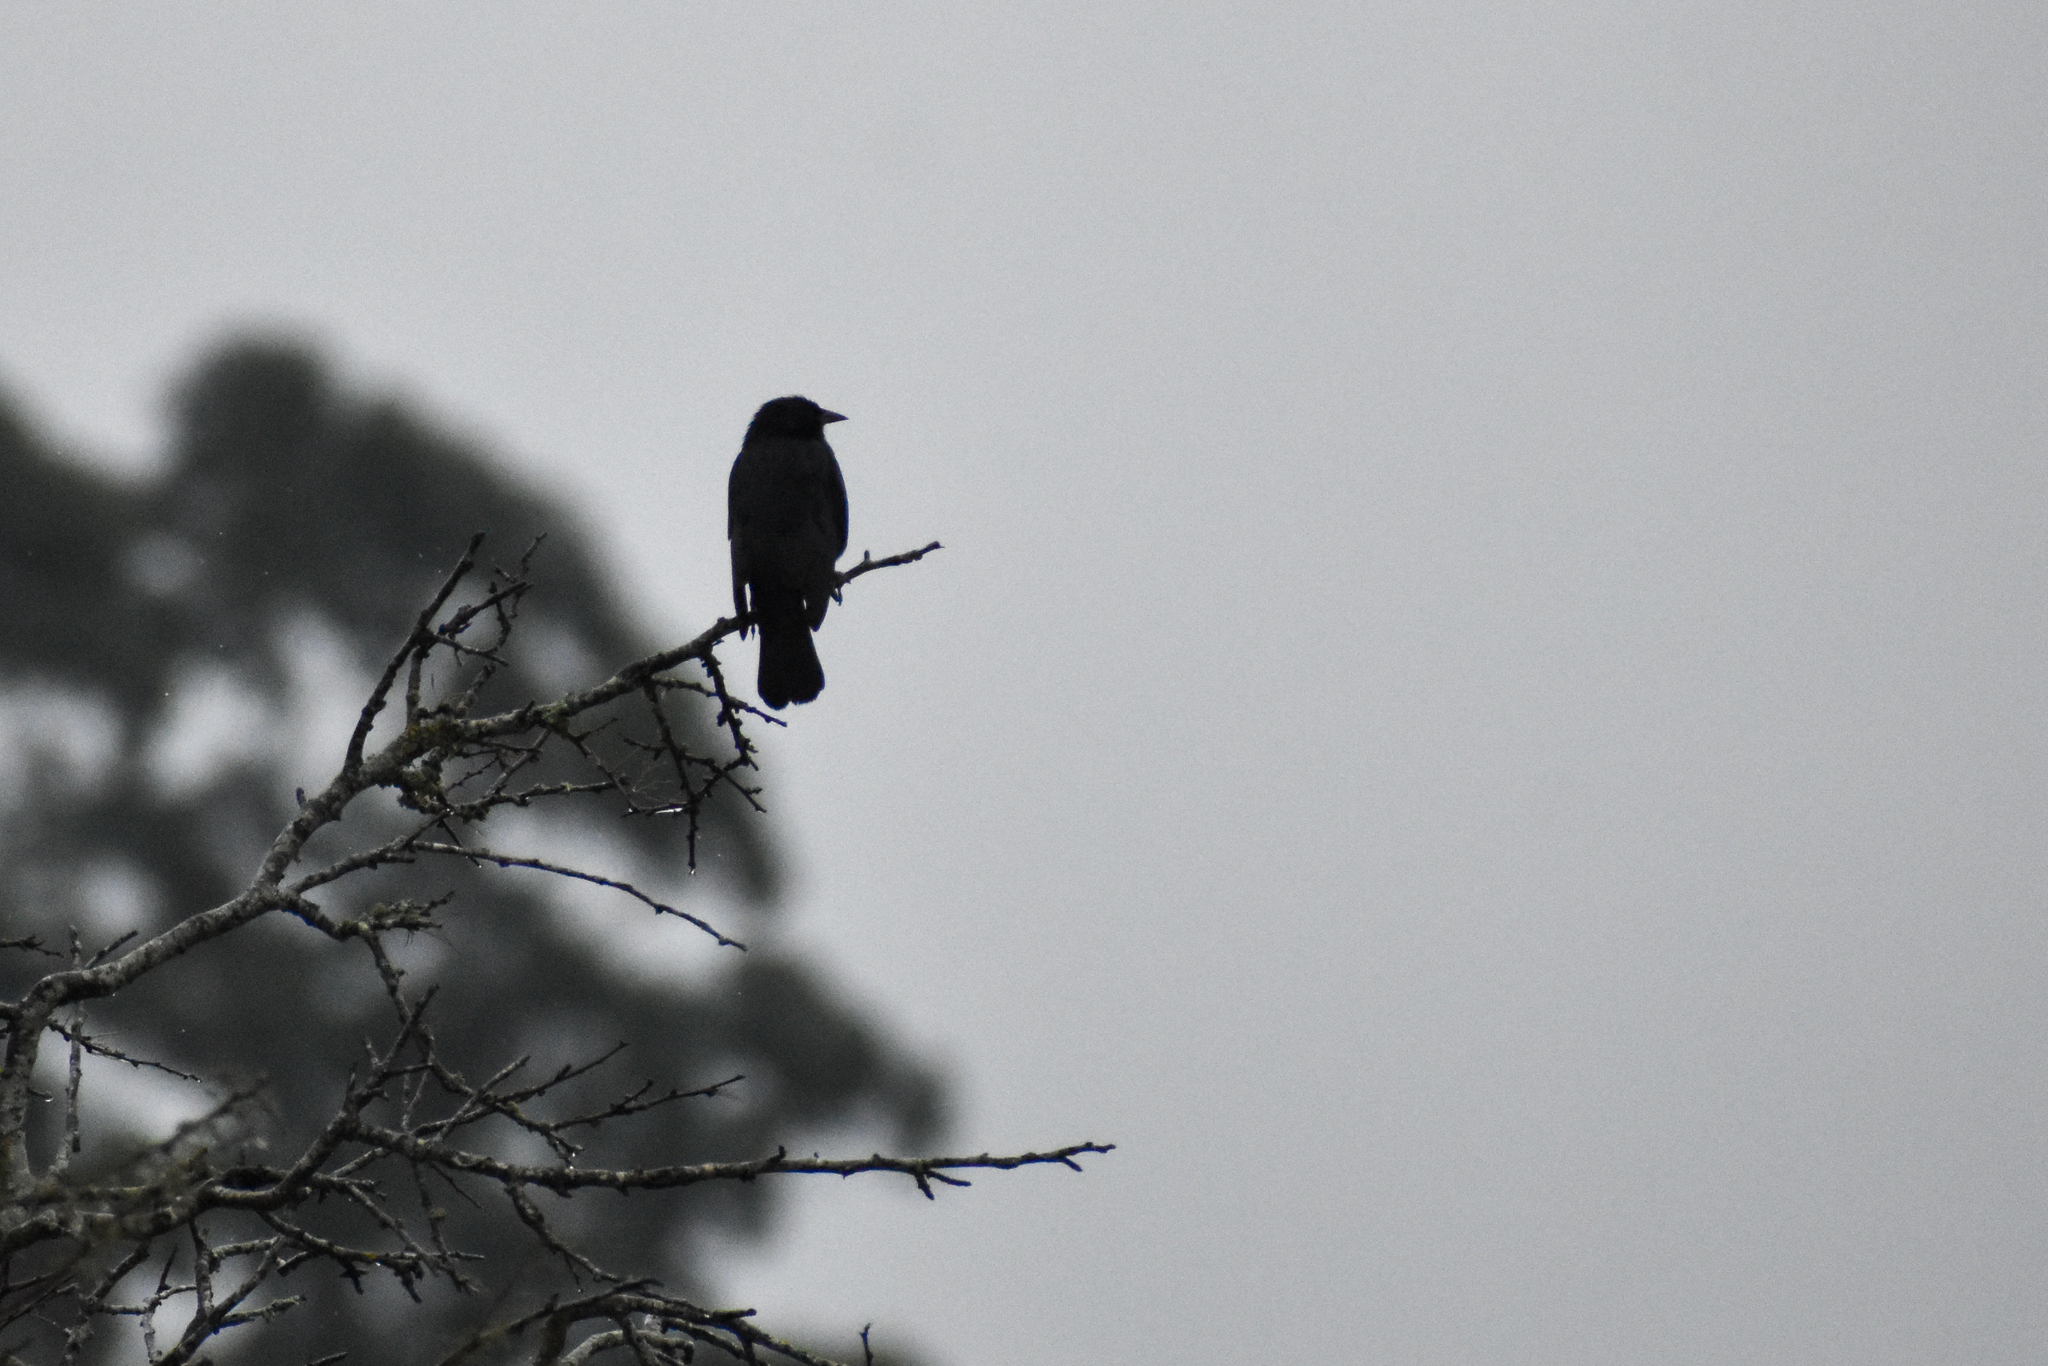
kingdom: Animalia
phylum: Chordata
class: Aves
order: Passeriformes
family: Icteridae
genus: Gnorimopsar
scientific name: Gnorimopsar chopi
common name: Chopi blackbird
